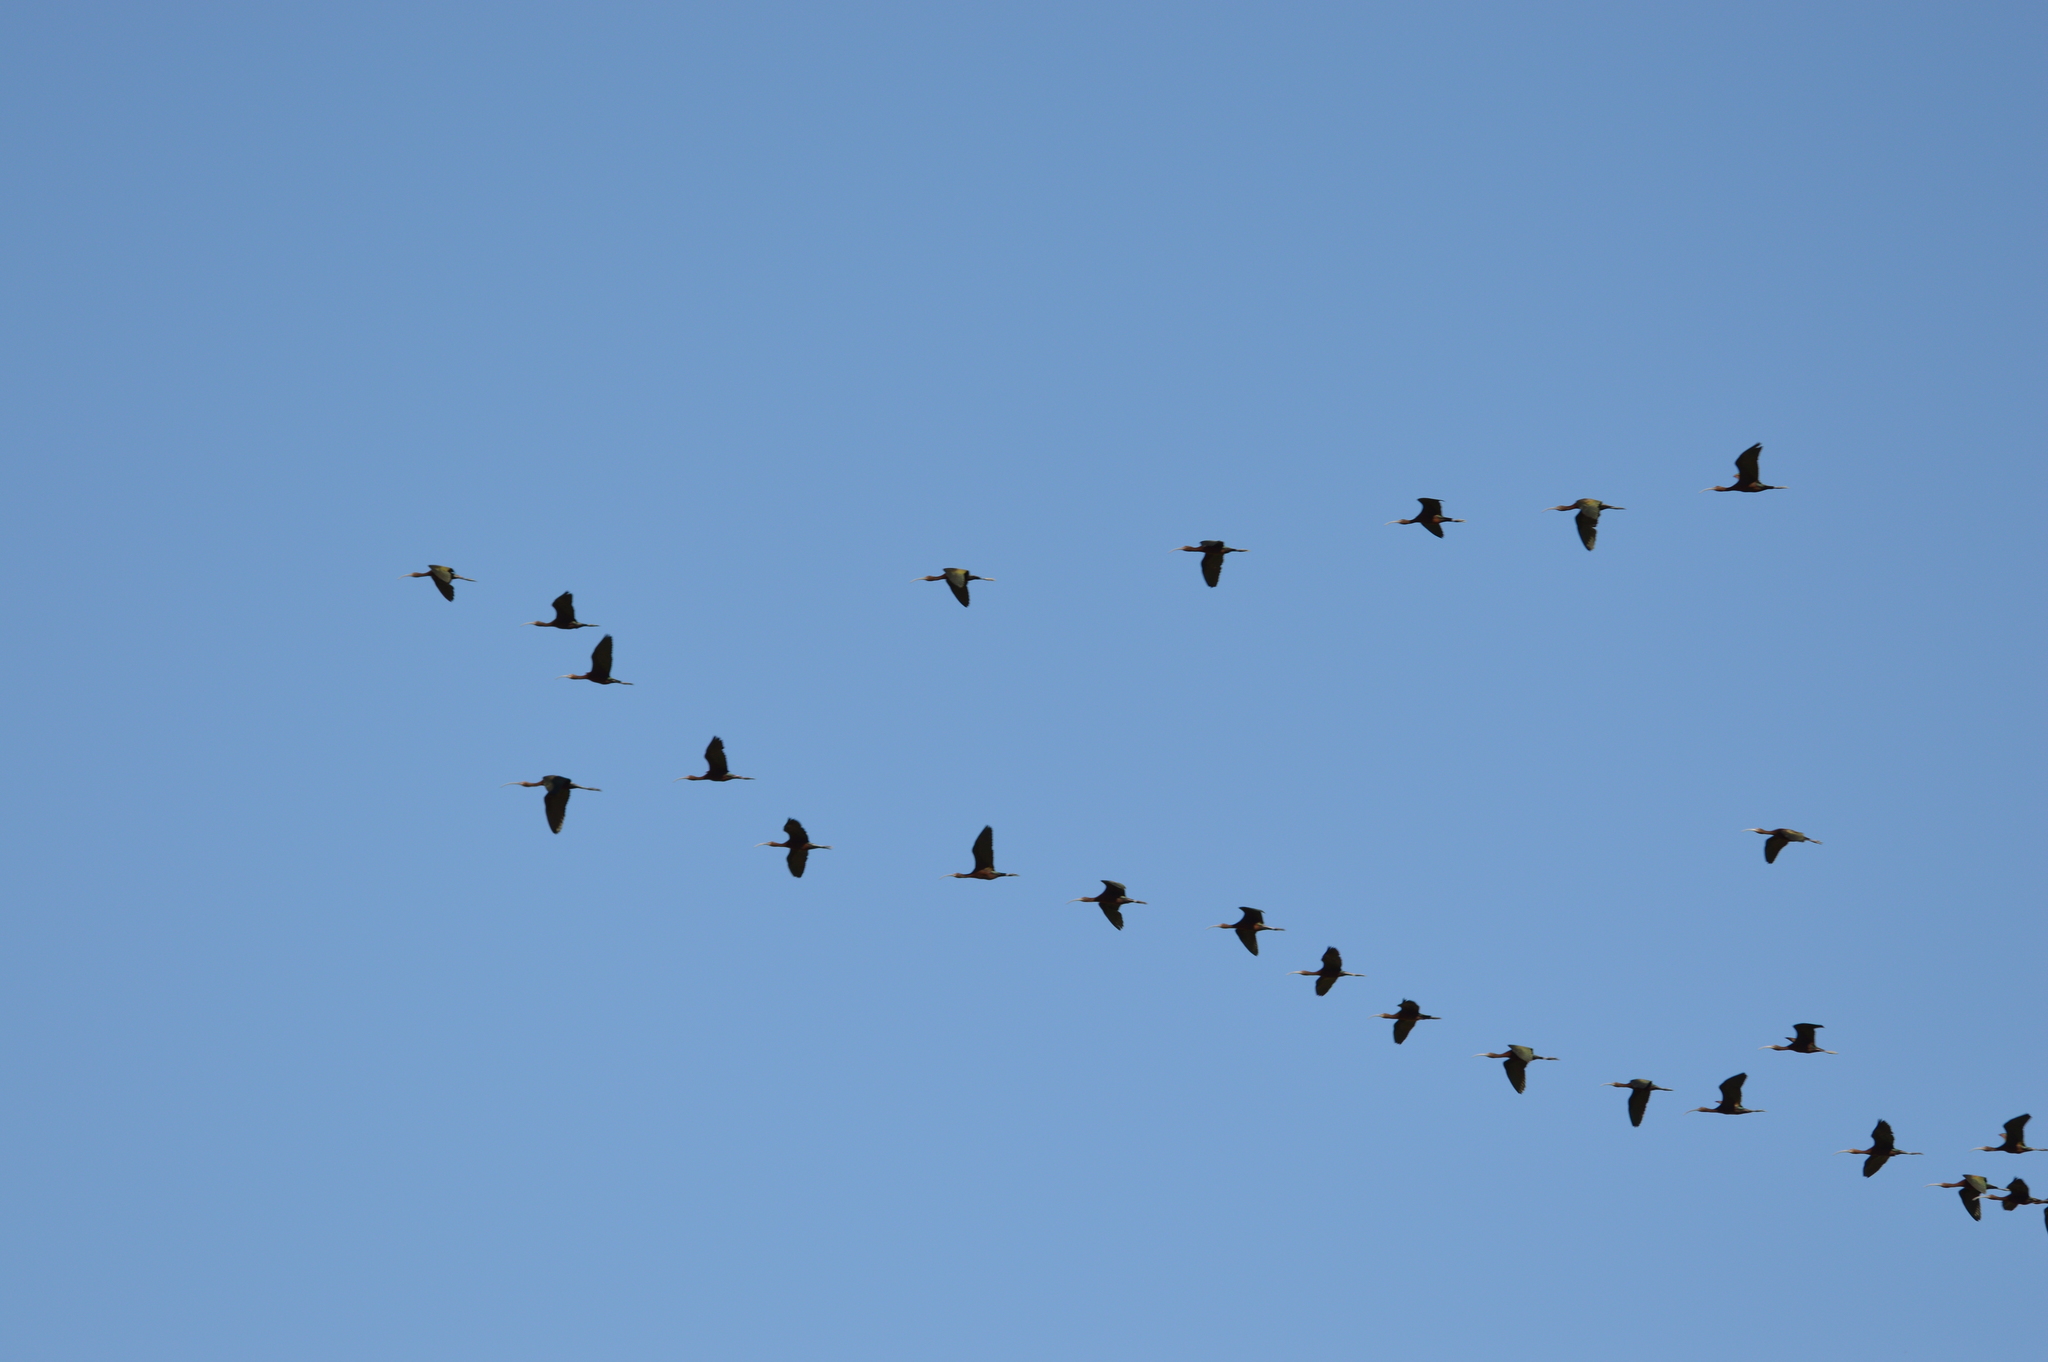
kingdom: Animalia
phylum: Chordata
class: Aves
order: Pelecaniformes
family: Threskiornithidae
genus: Plegadis
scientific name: Plegadis chihi
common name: White-faced ibis
